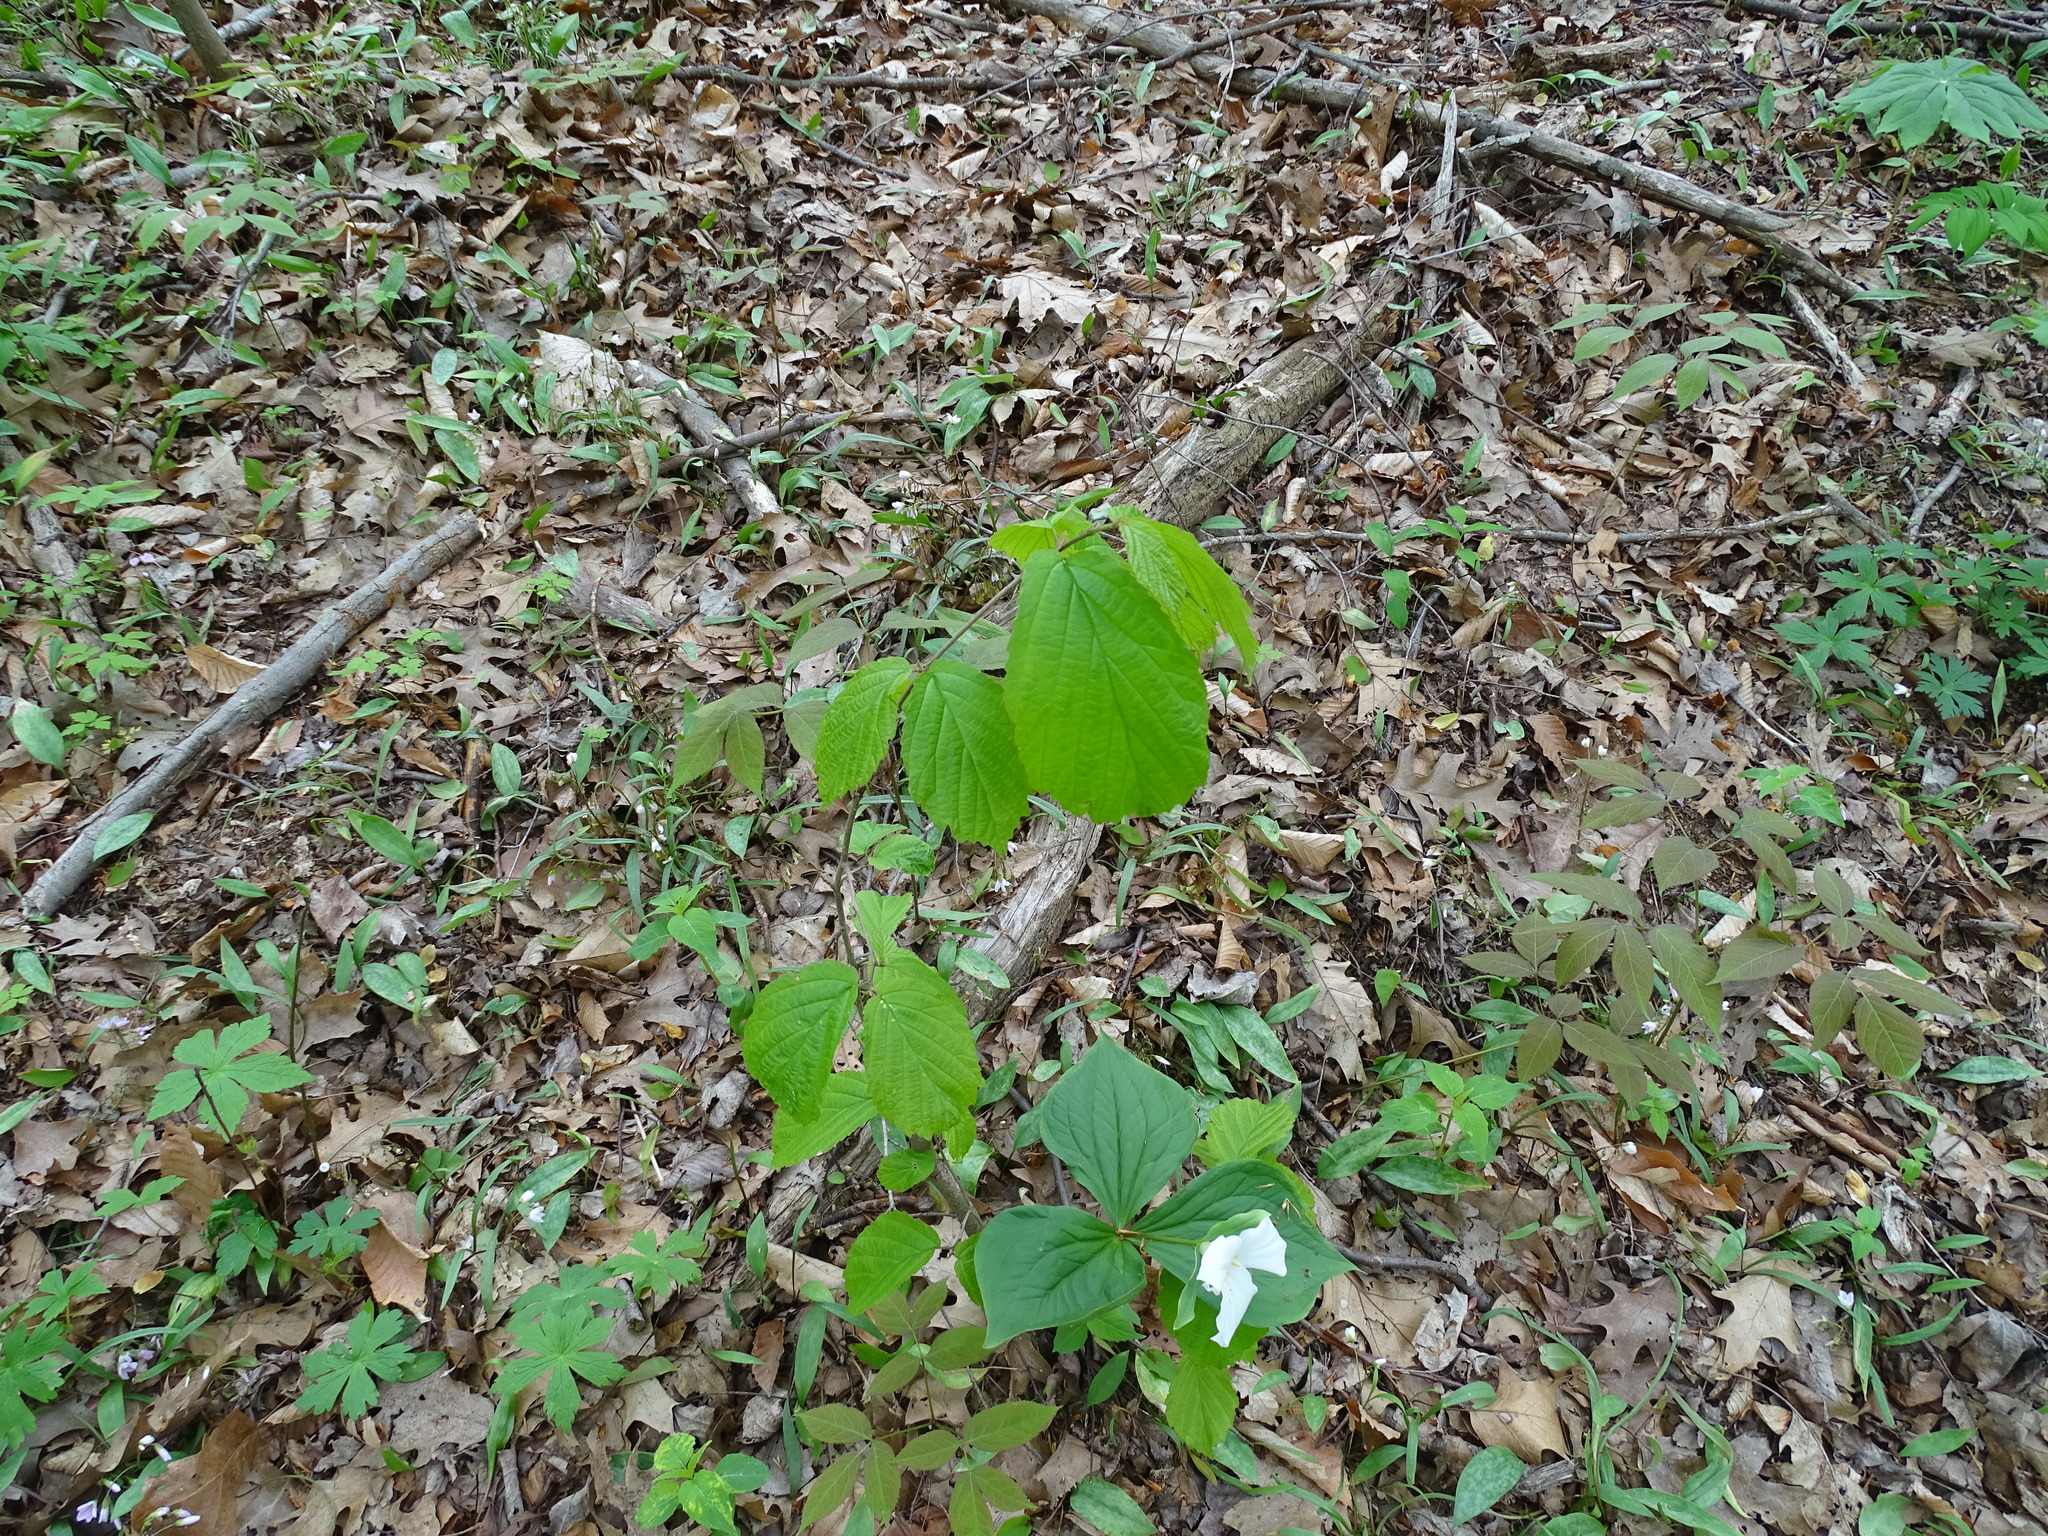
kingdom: Plantae
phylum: Tracheophyta
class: Magnoliopsida
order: Saxifragales
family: Hamamelidaceae
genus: Hamamelis
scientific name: Hamamelis virginiana
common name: Witch-hazel
